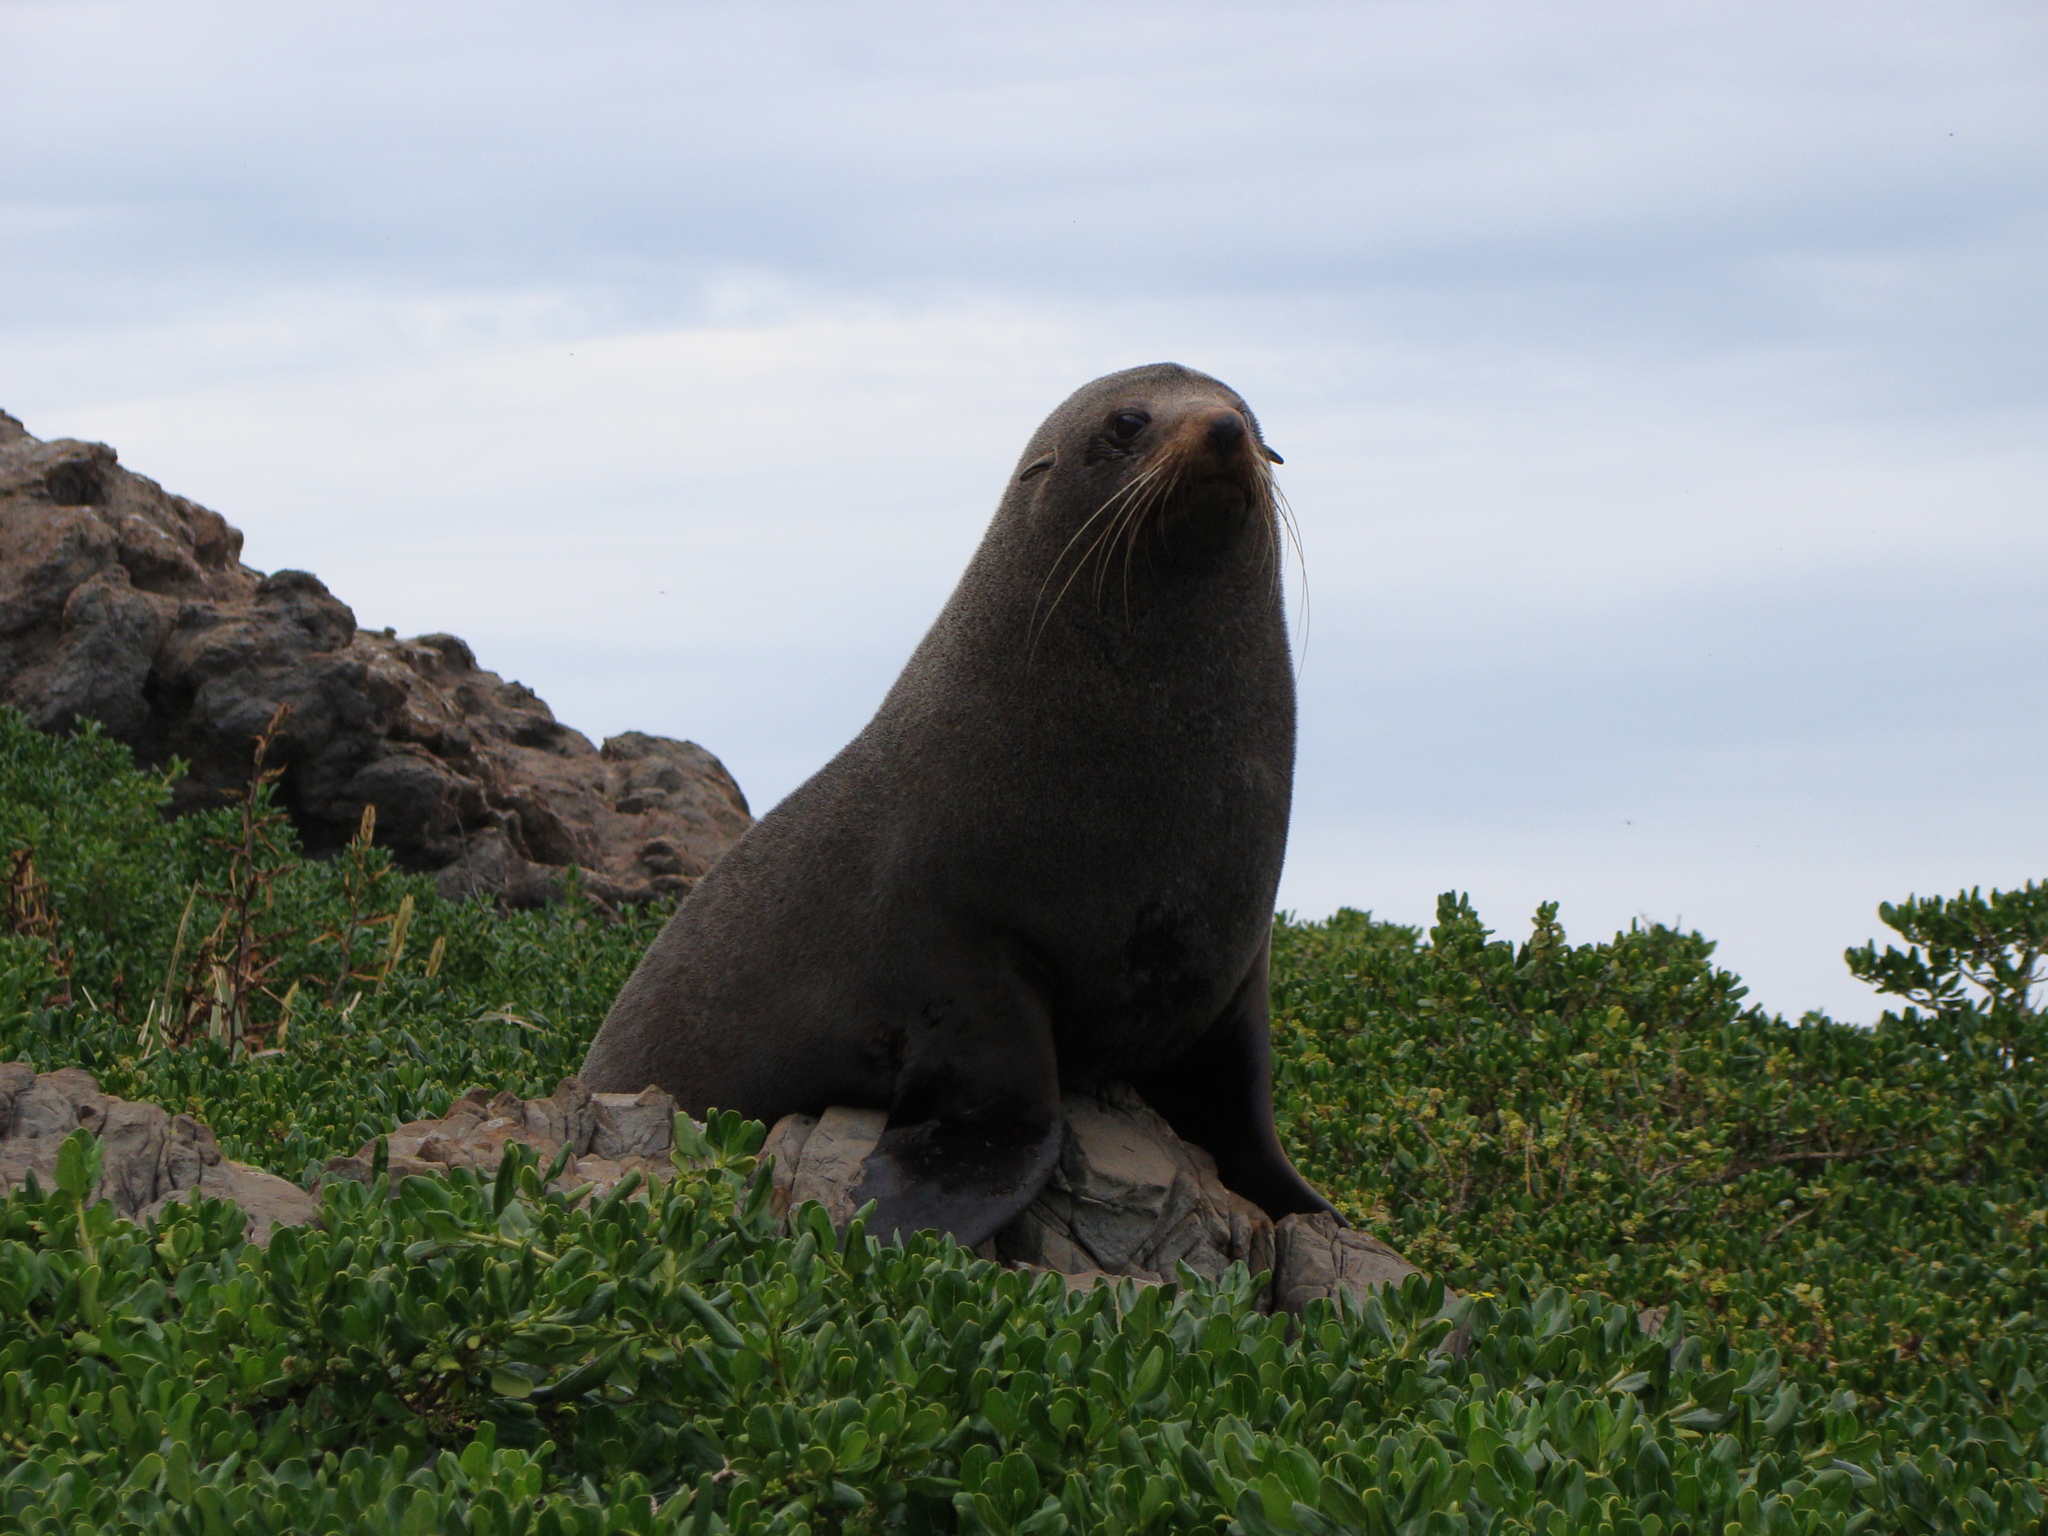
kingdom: Animalia
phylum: Chordata
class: Mammalia
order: Carnivora
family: Otariidae
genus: Arctocephalus
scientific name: Arctocephalus forsteri
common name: New zealand fur seal
